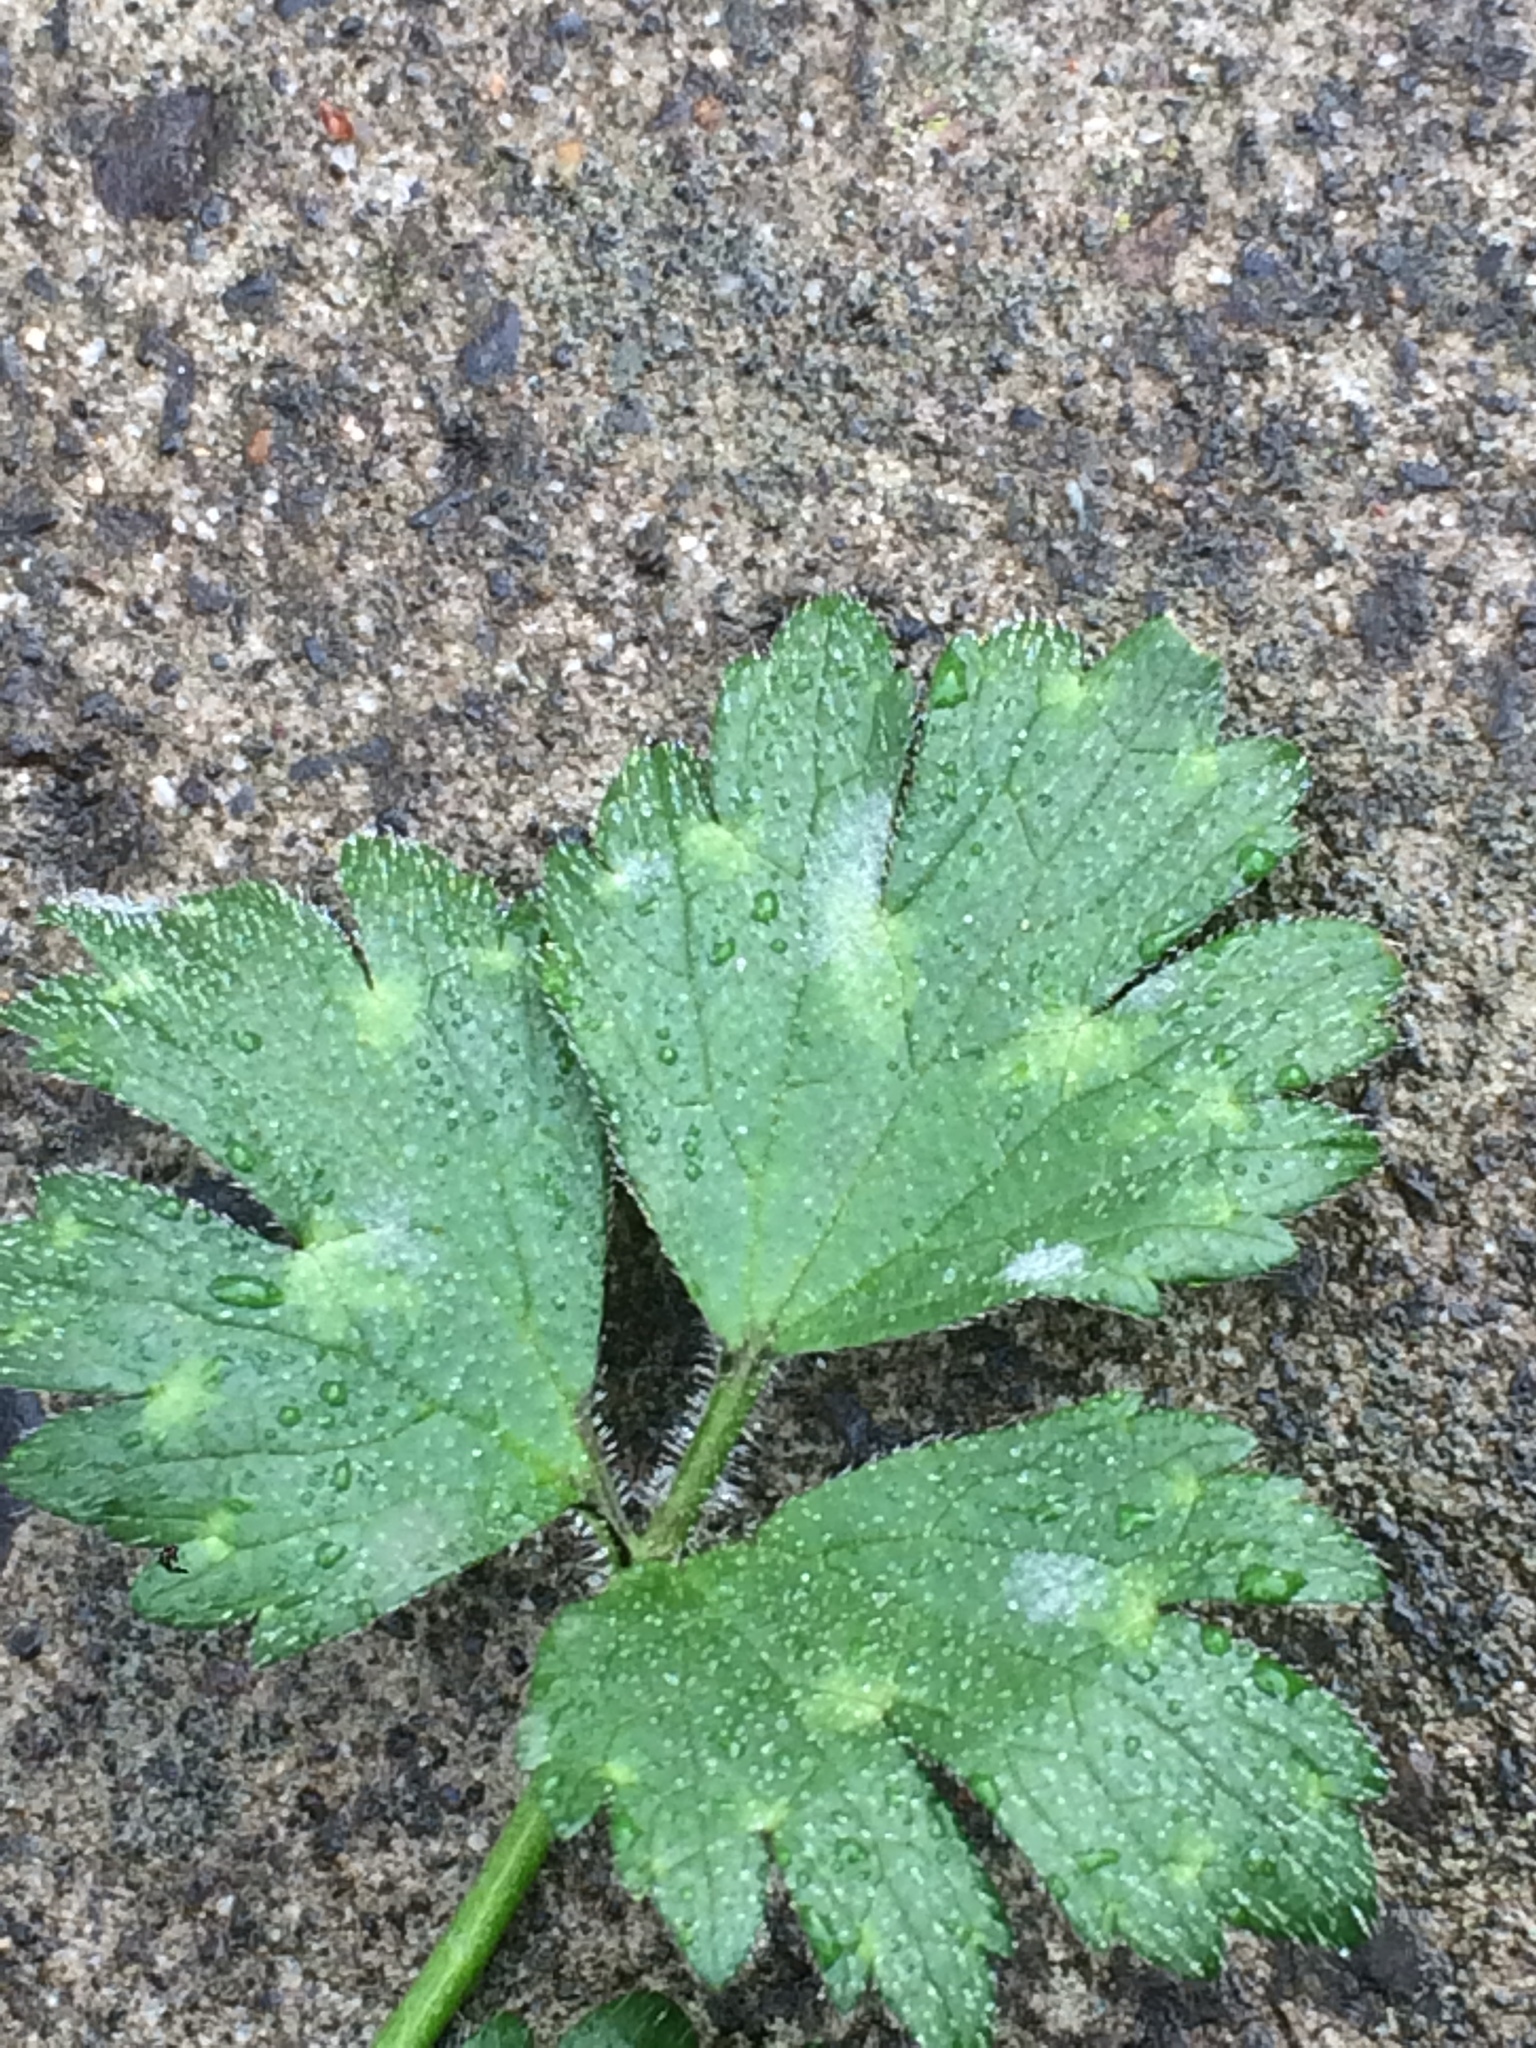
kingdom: Plantae
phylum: Tracheophyta
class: Magnoliopsida
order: Ranunculales
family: Ranunculaceae
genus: Ranunculus
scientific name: Ranunculus repens
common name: Creeping buttercup
